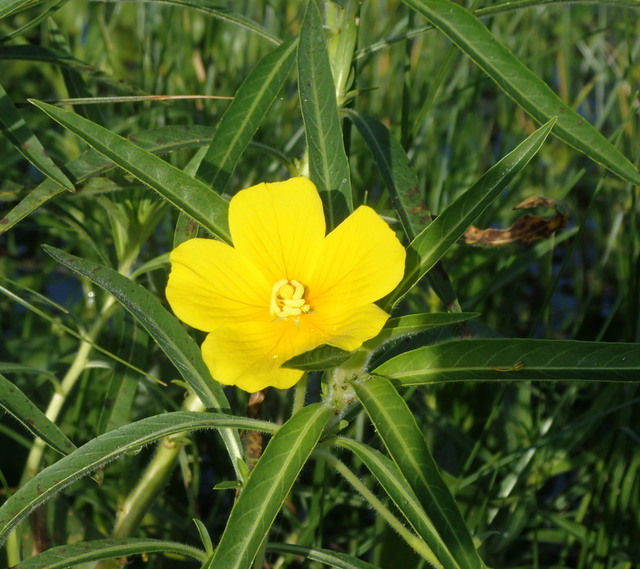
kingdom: Plantae
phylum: Tracheophyta
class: Magnoliopsida
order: Myrtales
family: Onagraceae
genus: Ludwigia
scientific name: Ludwigia hexapetala
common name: Water-primrose
